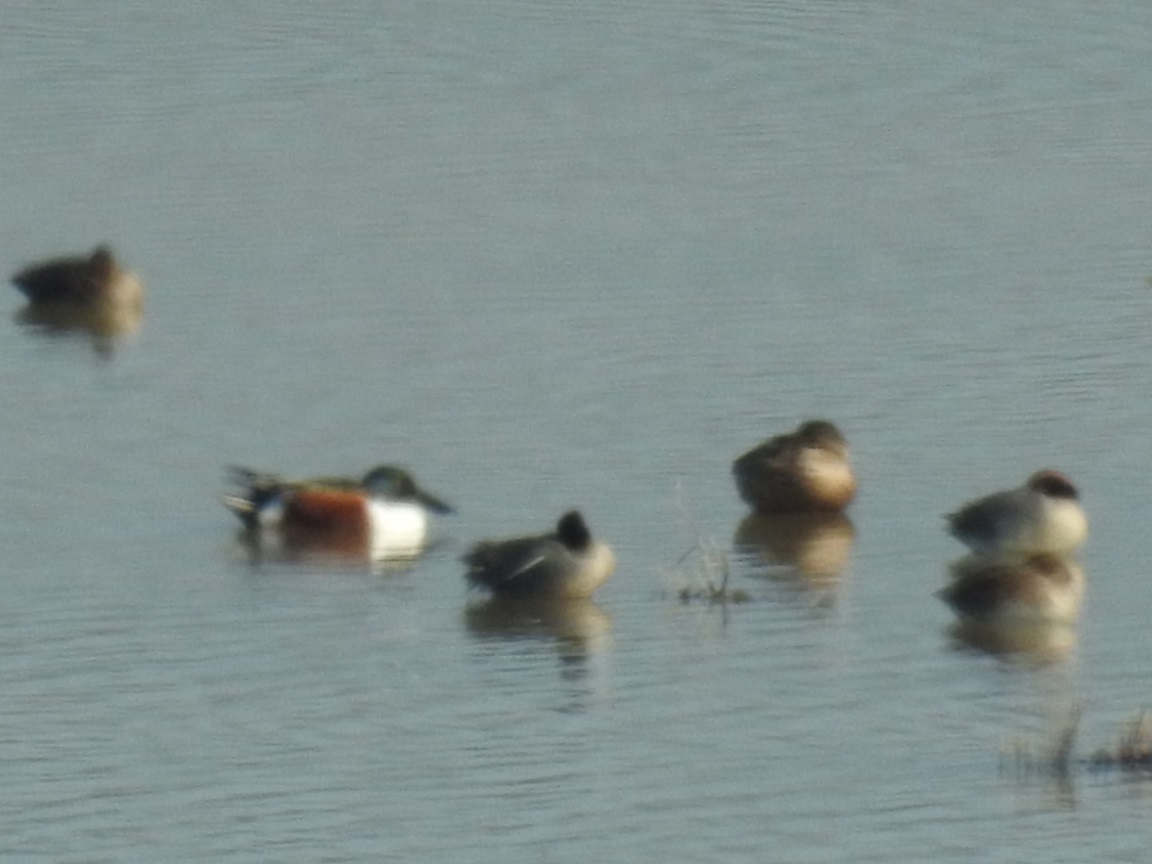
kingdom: Animalia
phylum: Chordata
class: Aves
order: Anseriformes
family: Anatidae
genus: Spatula
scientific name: Spatula clypeata
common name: Northern shoveler
